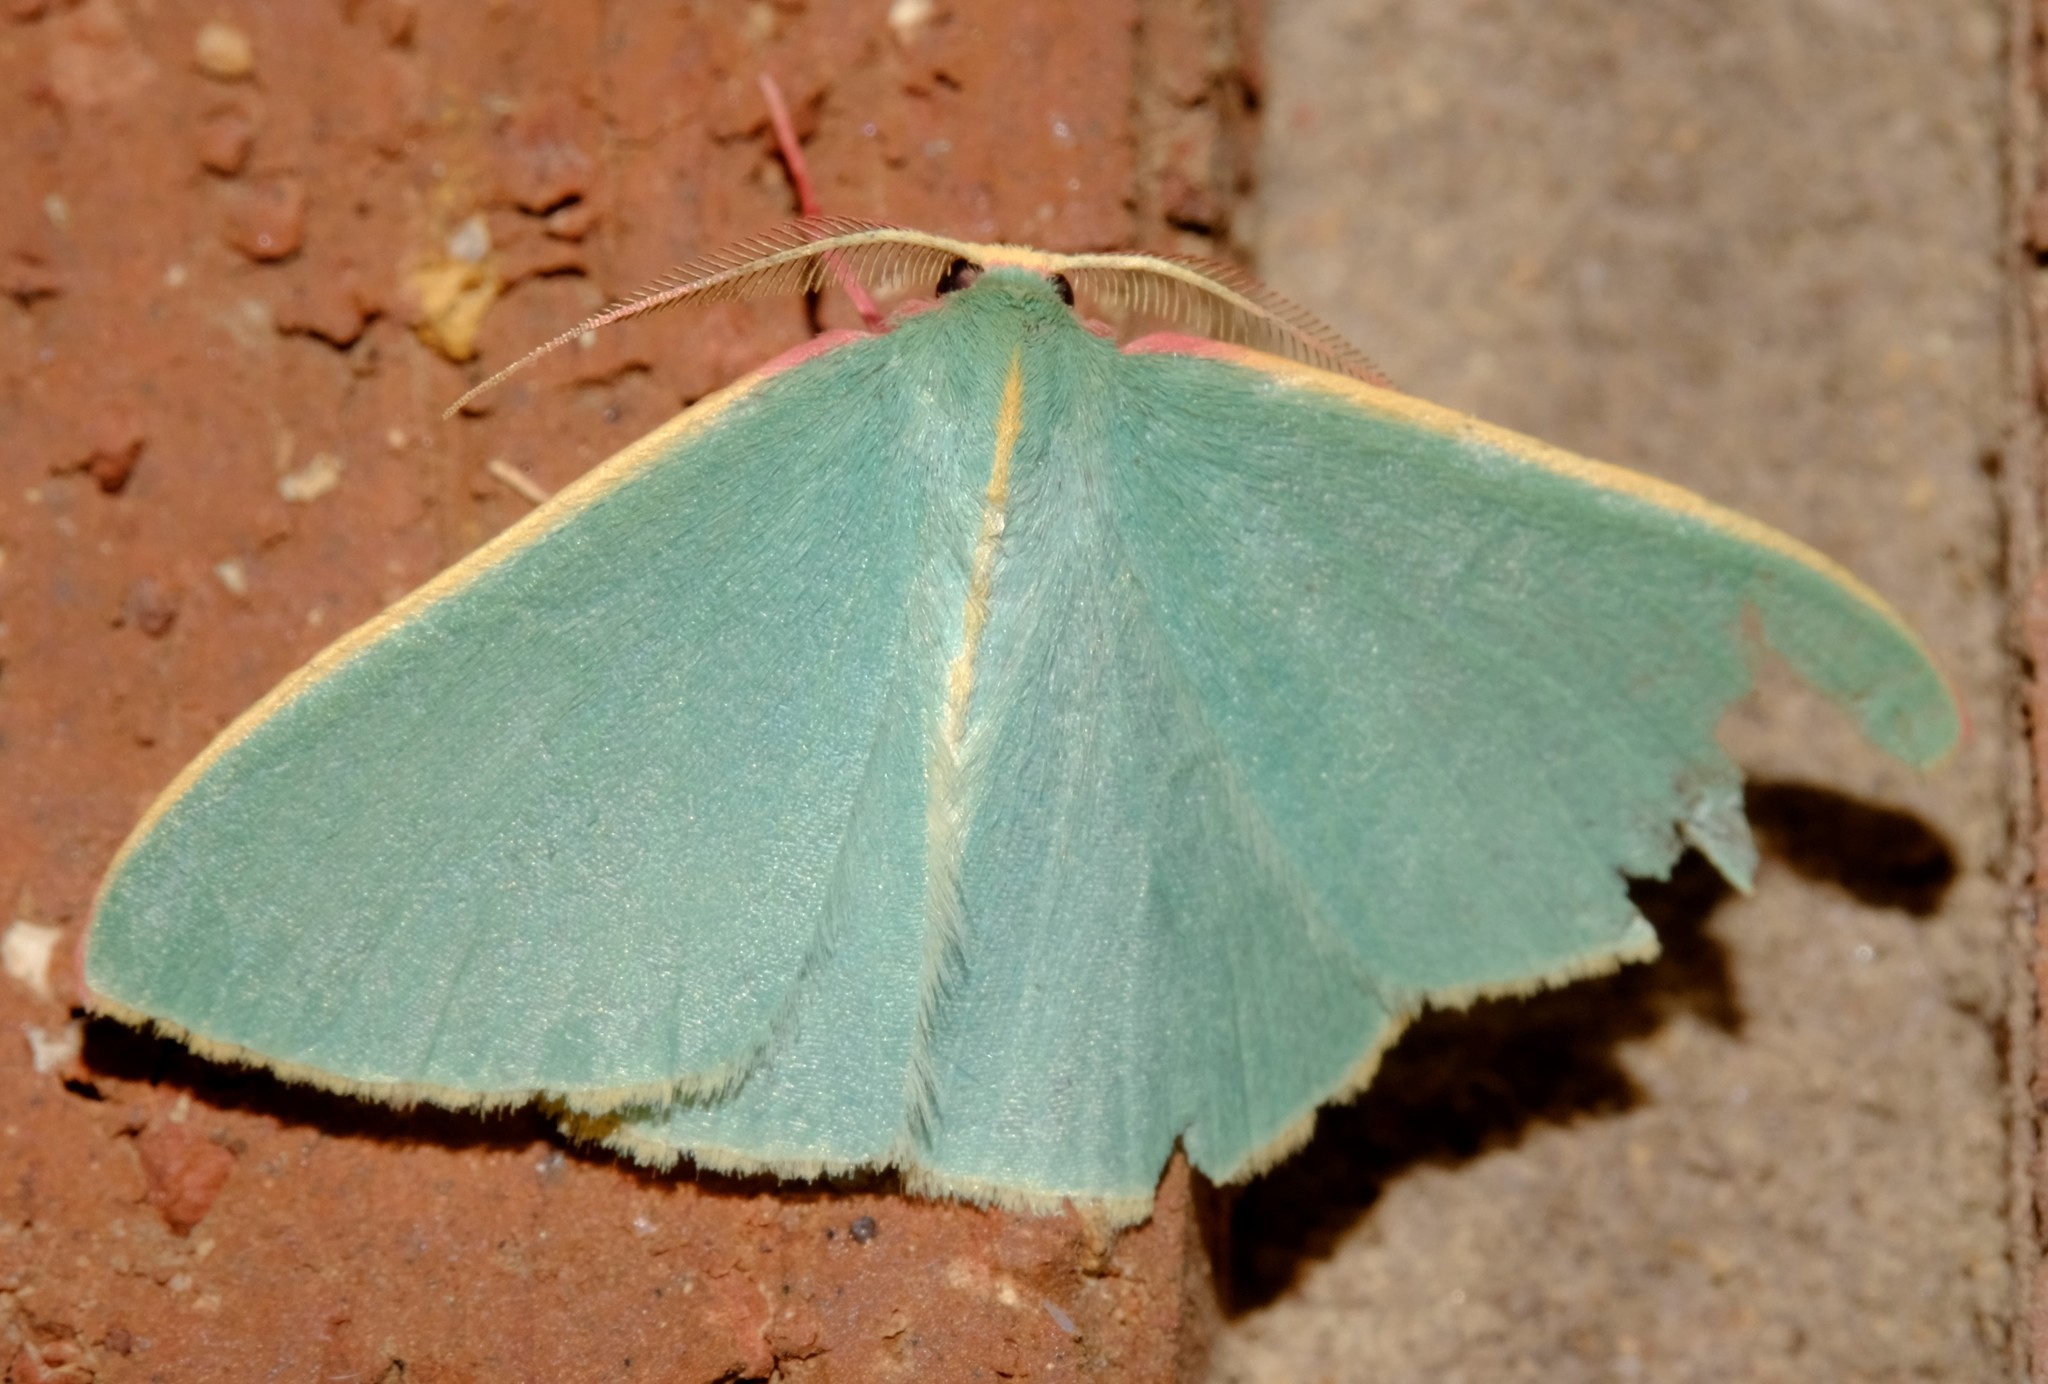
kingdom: Animalia
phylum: Arthropoda
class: Insecta
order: Lepidoptera
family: Geometridae
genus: Chlorocoma
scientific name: Chlorocoma assimilis
